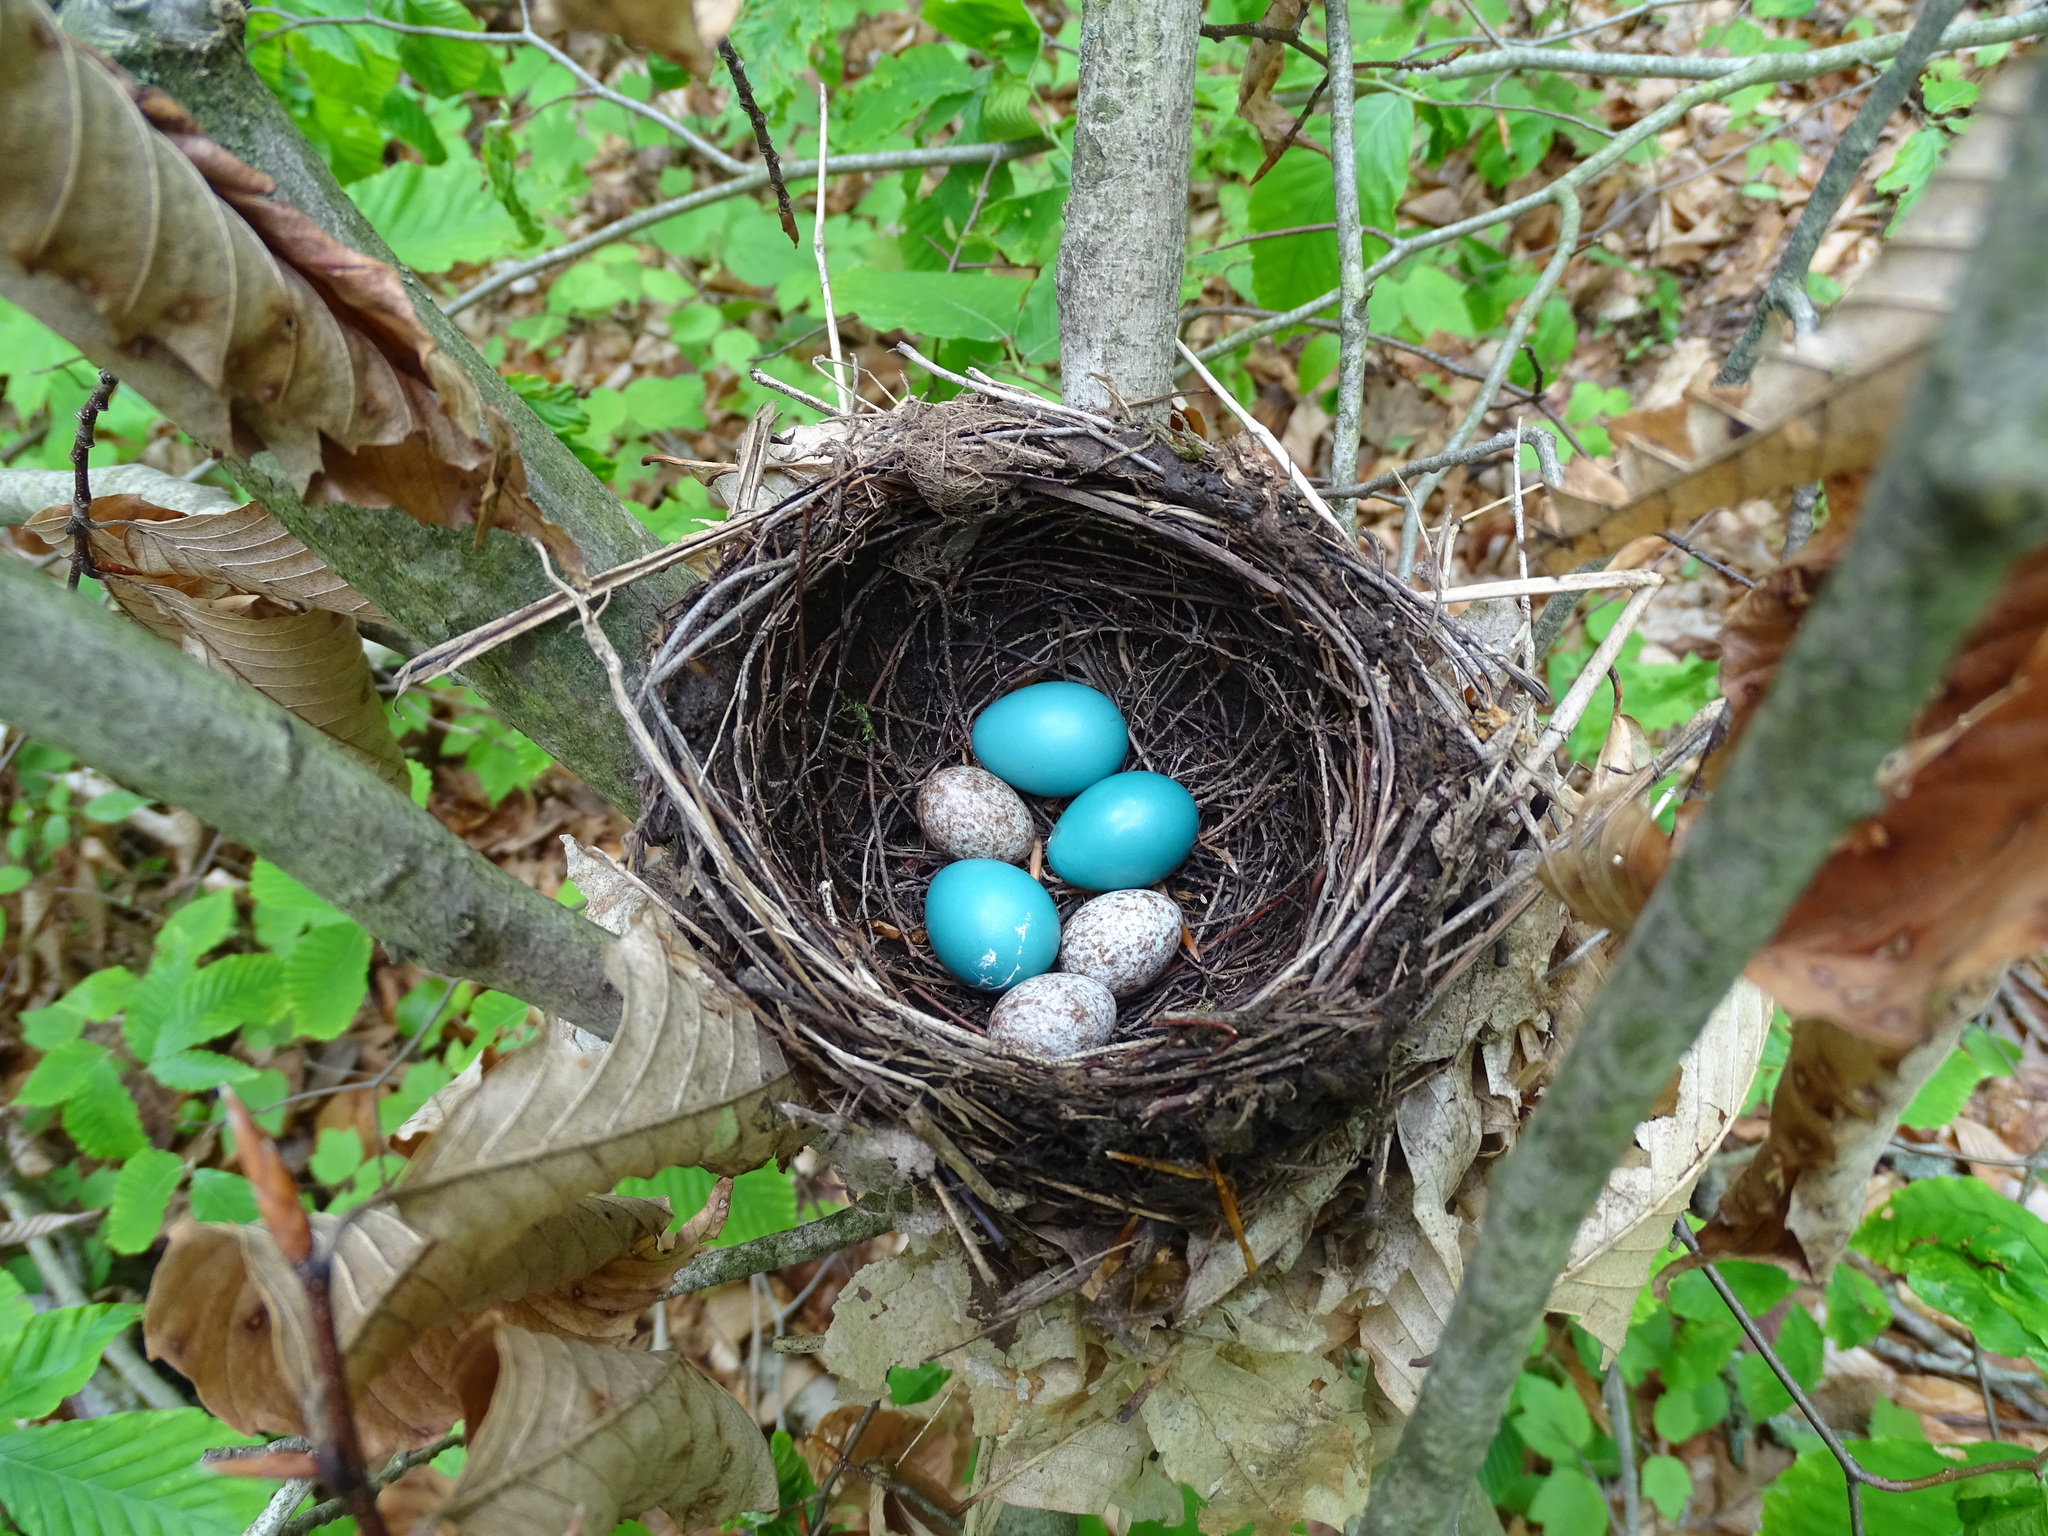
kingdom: Animalia
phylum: Chordata
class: Aves
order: Passeriformes
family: Turdidae
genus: Hylocichla
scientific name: Hylocichla mustelina
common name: Wood thrush
